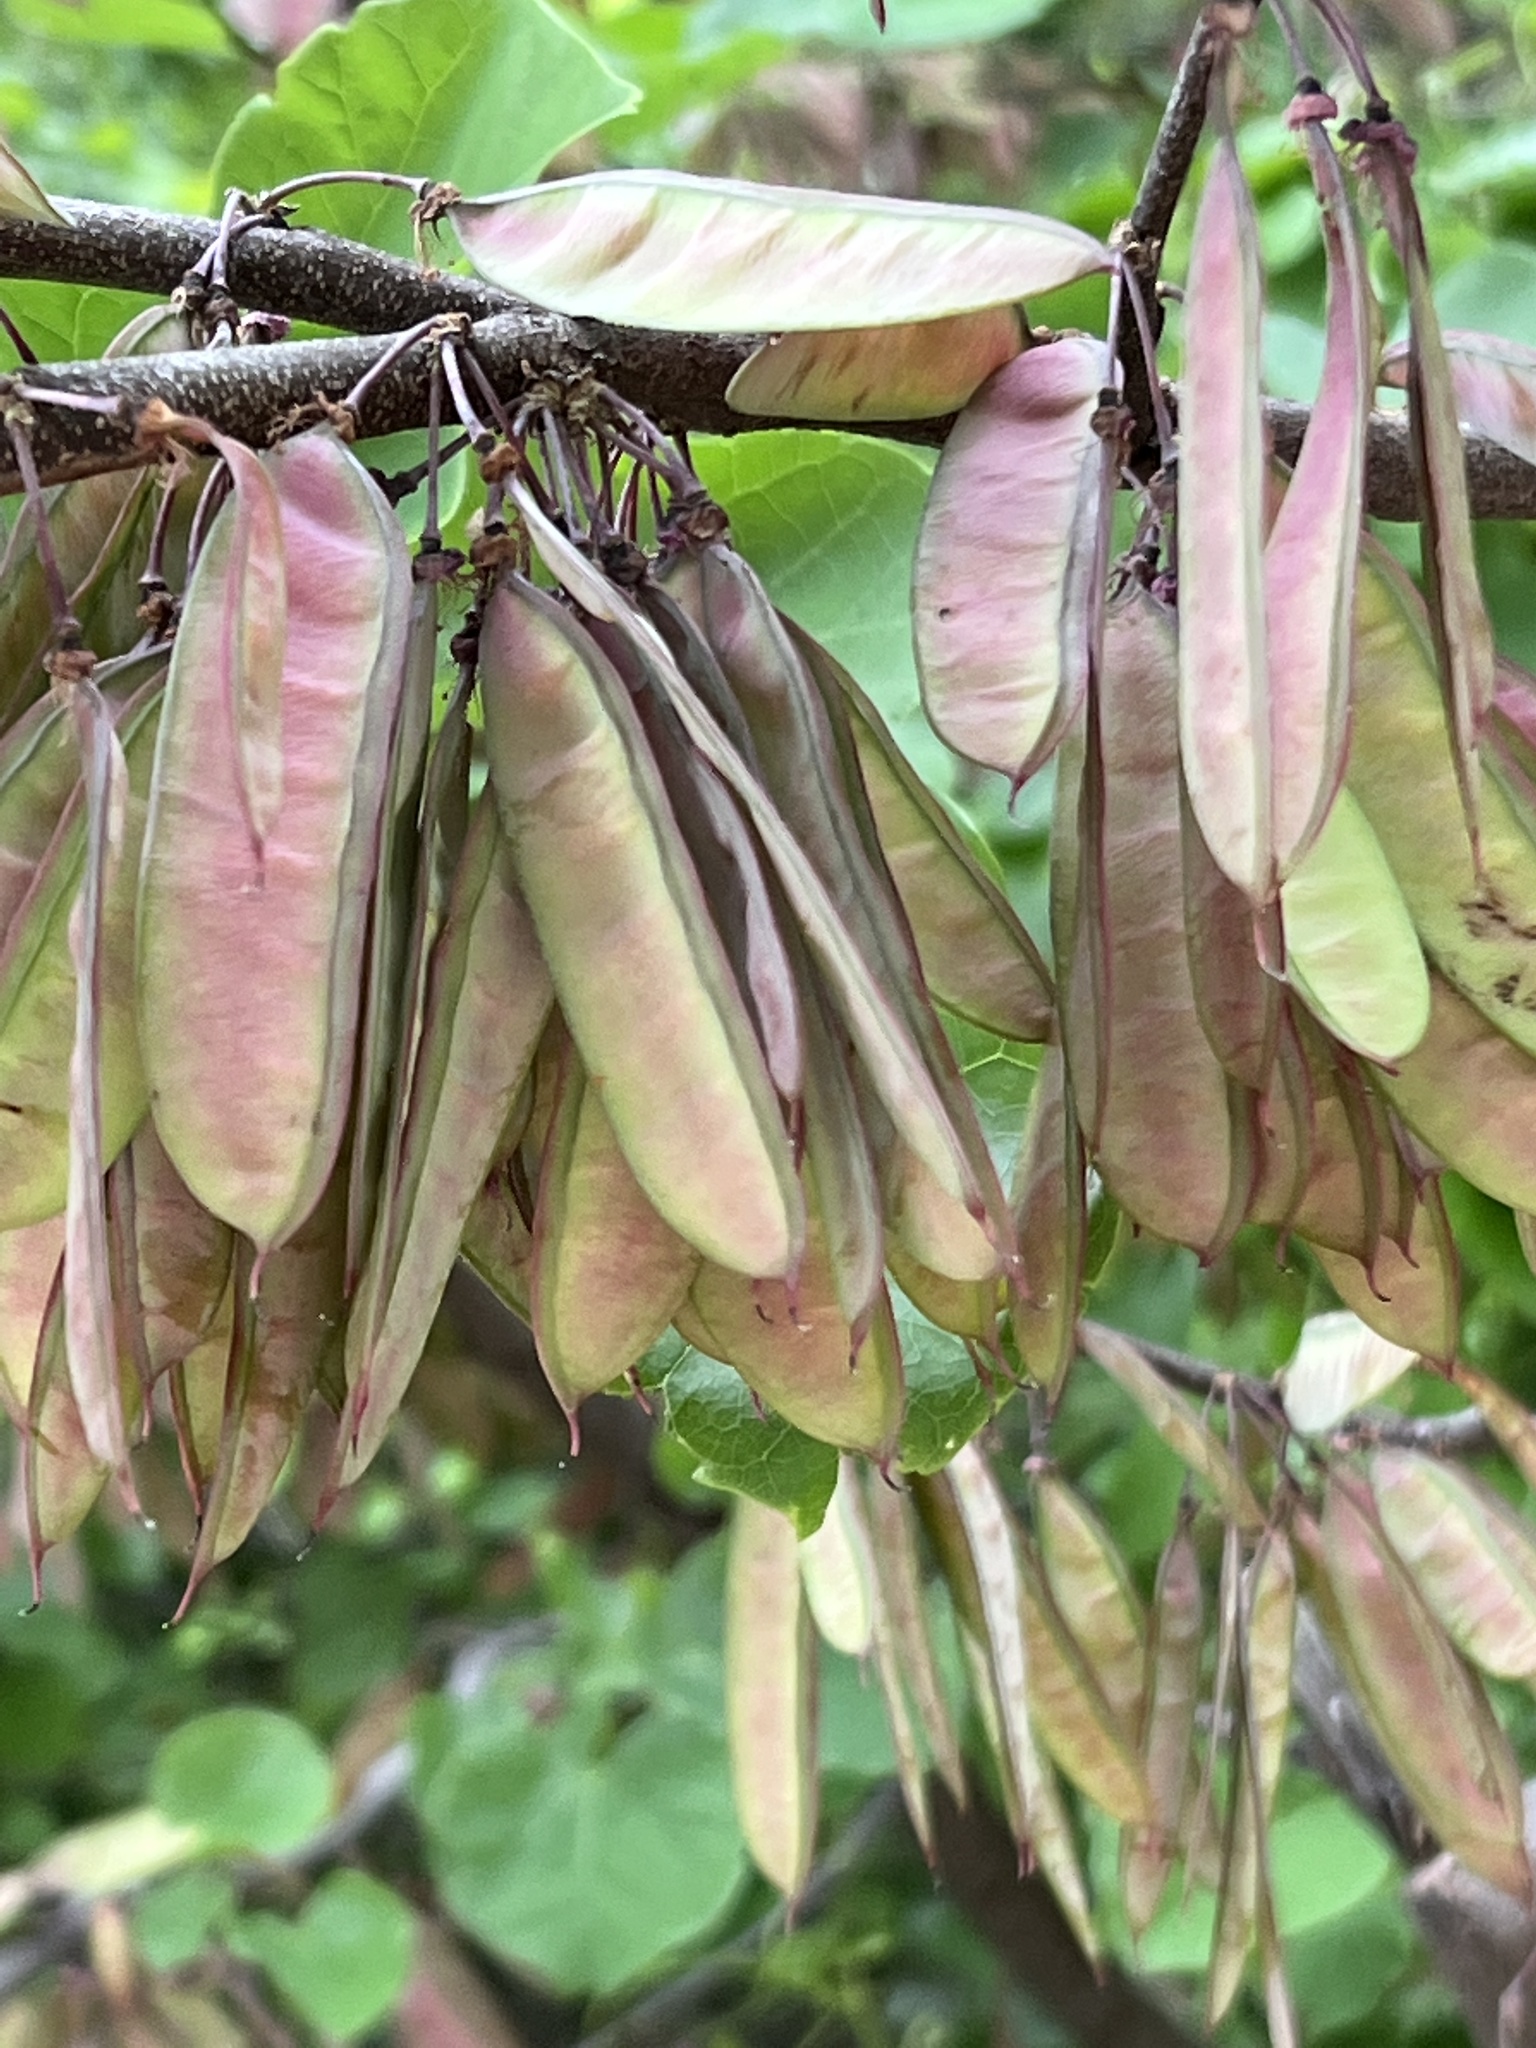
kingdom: Plantae
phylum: Tracheophyta
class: Magnoliopsida
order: Fabales
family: Fabaceae
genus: Cercis
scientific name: Cercis canadensis
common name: Eastern redbud
